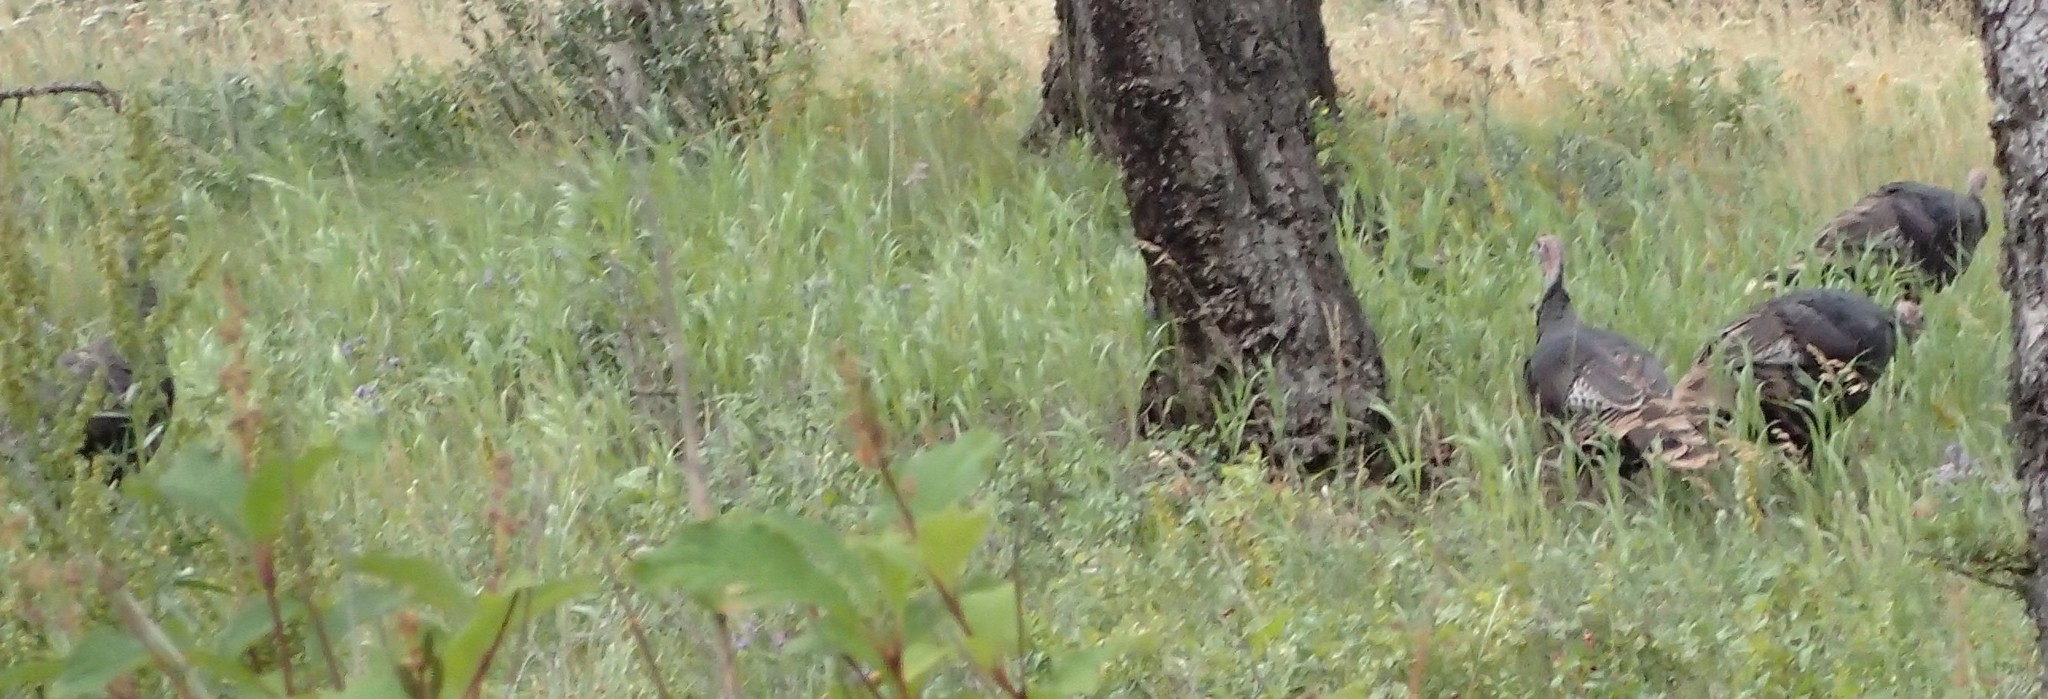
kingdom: Animalia
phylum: Chordata
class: Aves
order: Galliformes
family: Phasianidae
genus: Meleagris
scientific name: Meleagris gallopavo
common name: Wild turkey
